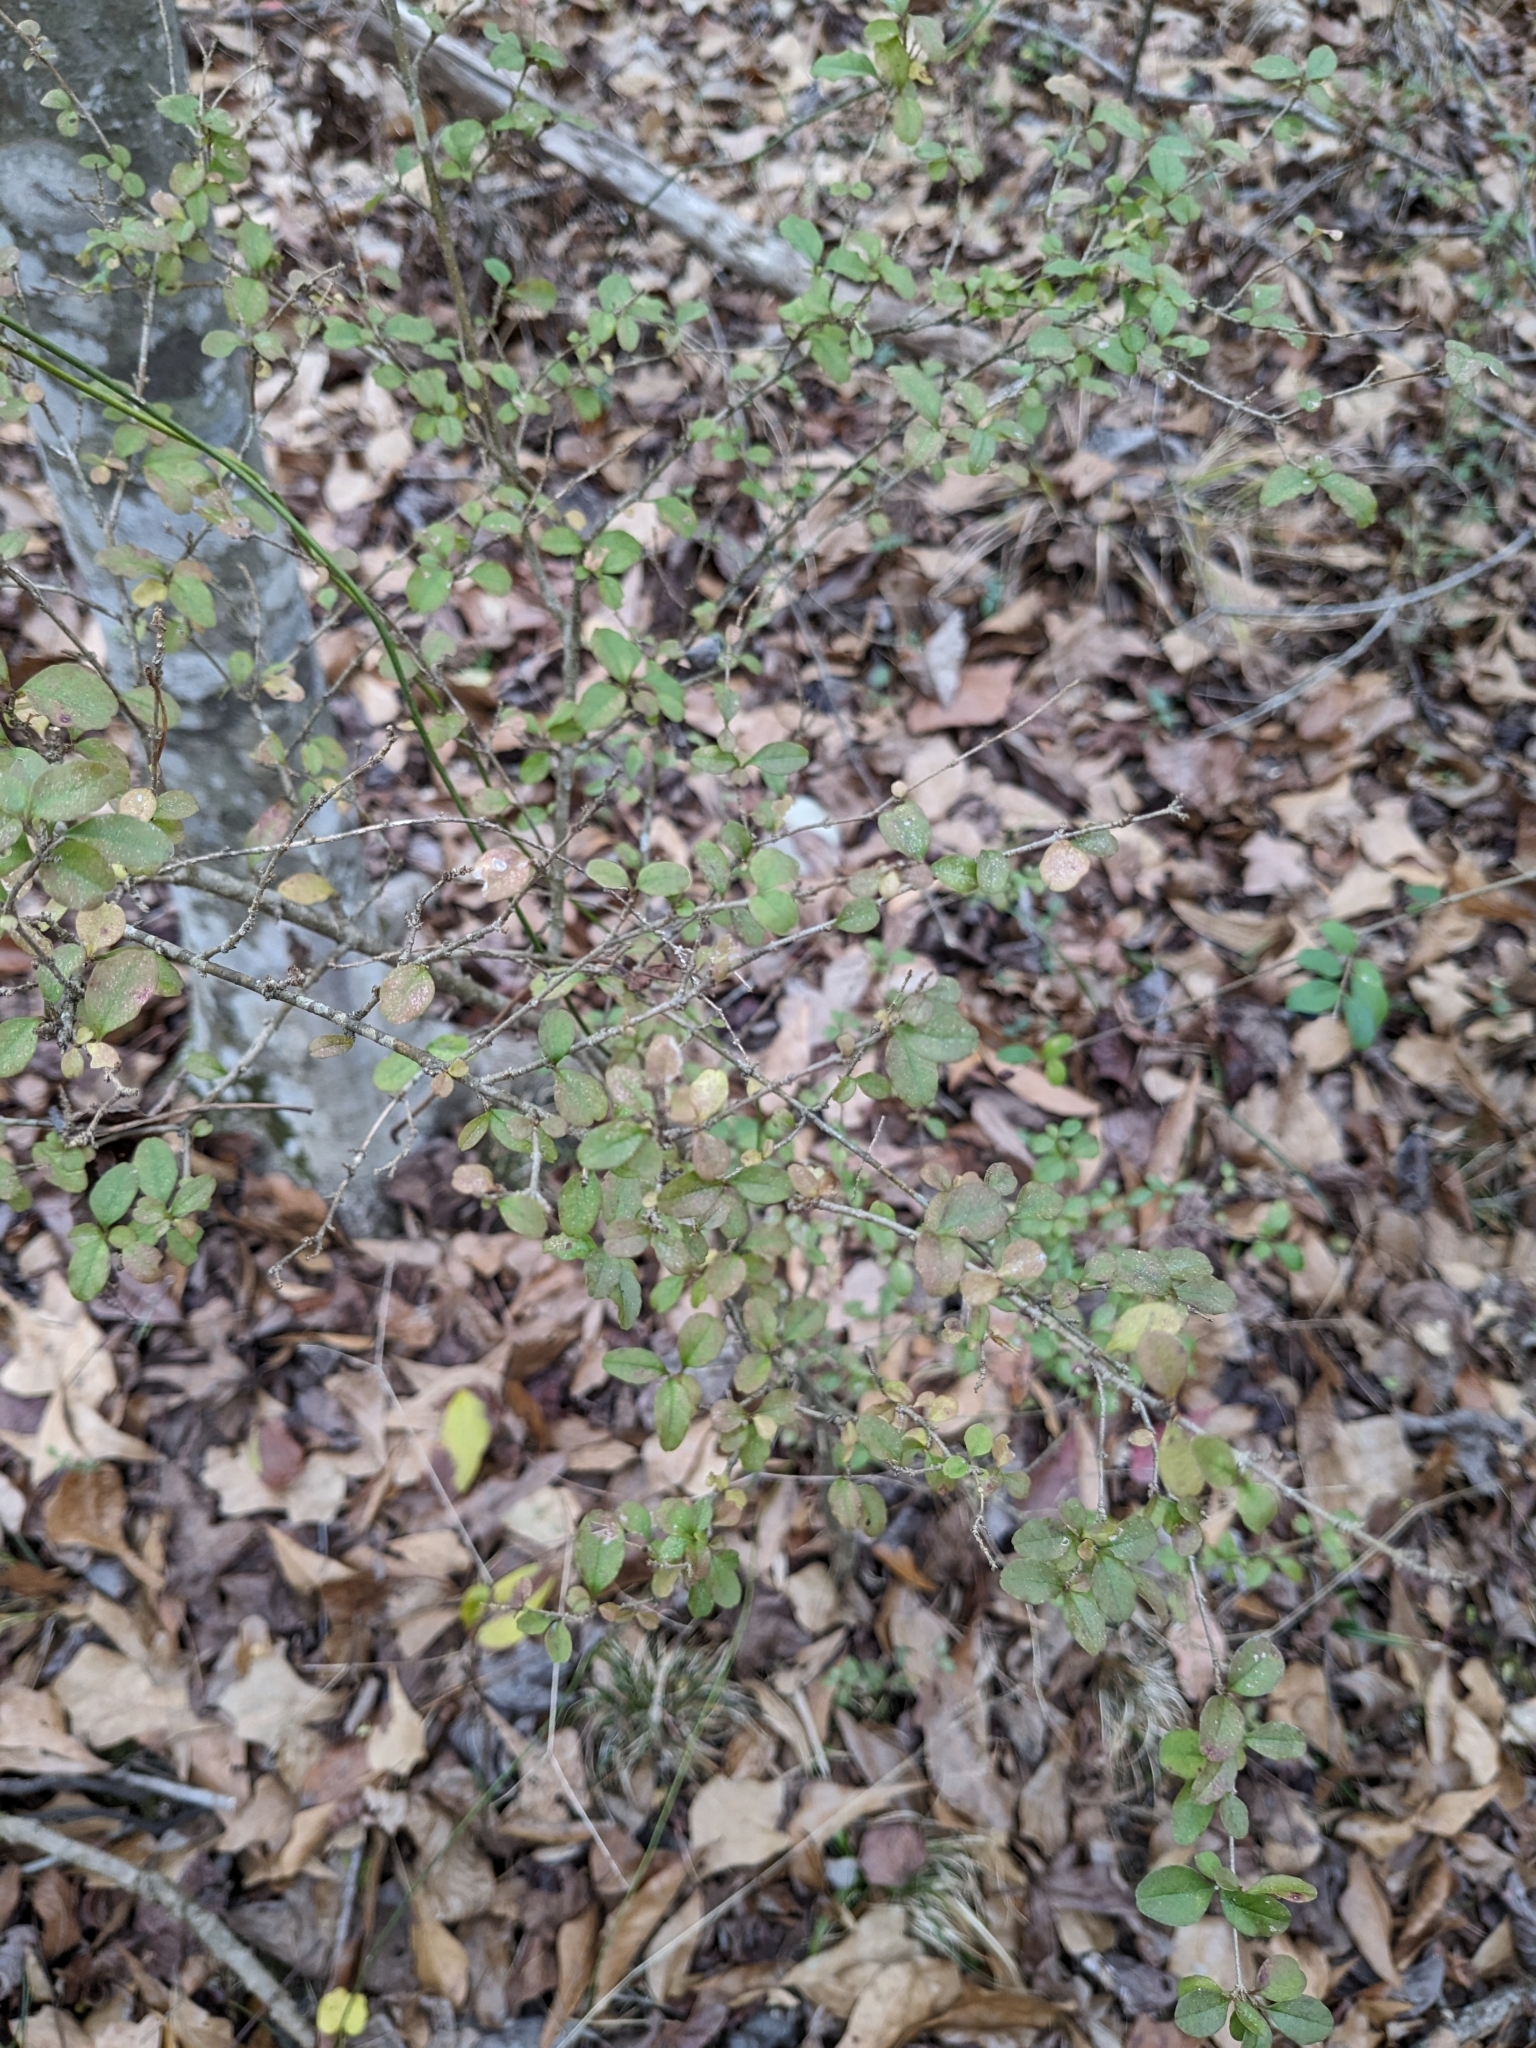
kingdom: Plantae
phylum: Tracheophyta
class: Magnoliopsida
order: Lamiales
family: Oleaceae
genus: Ligustrum
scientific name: Ligustrum sinense
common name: Chinese privet
